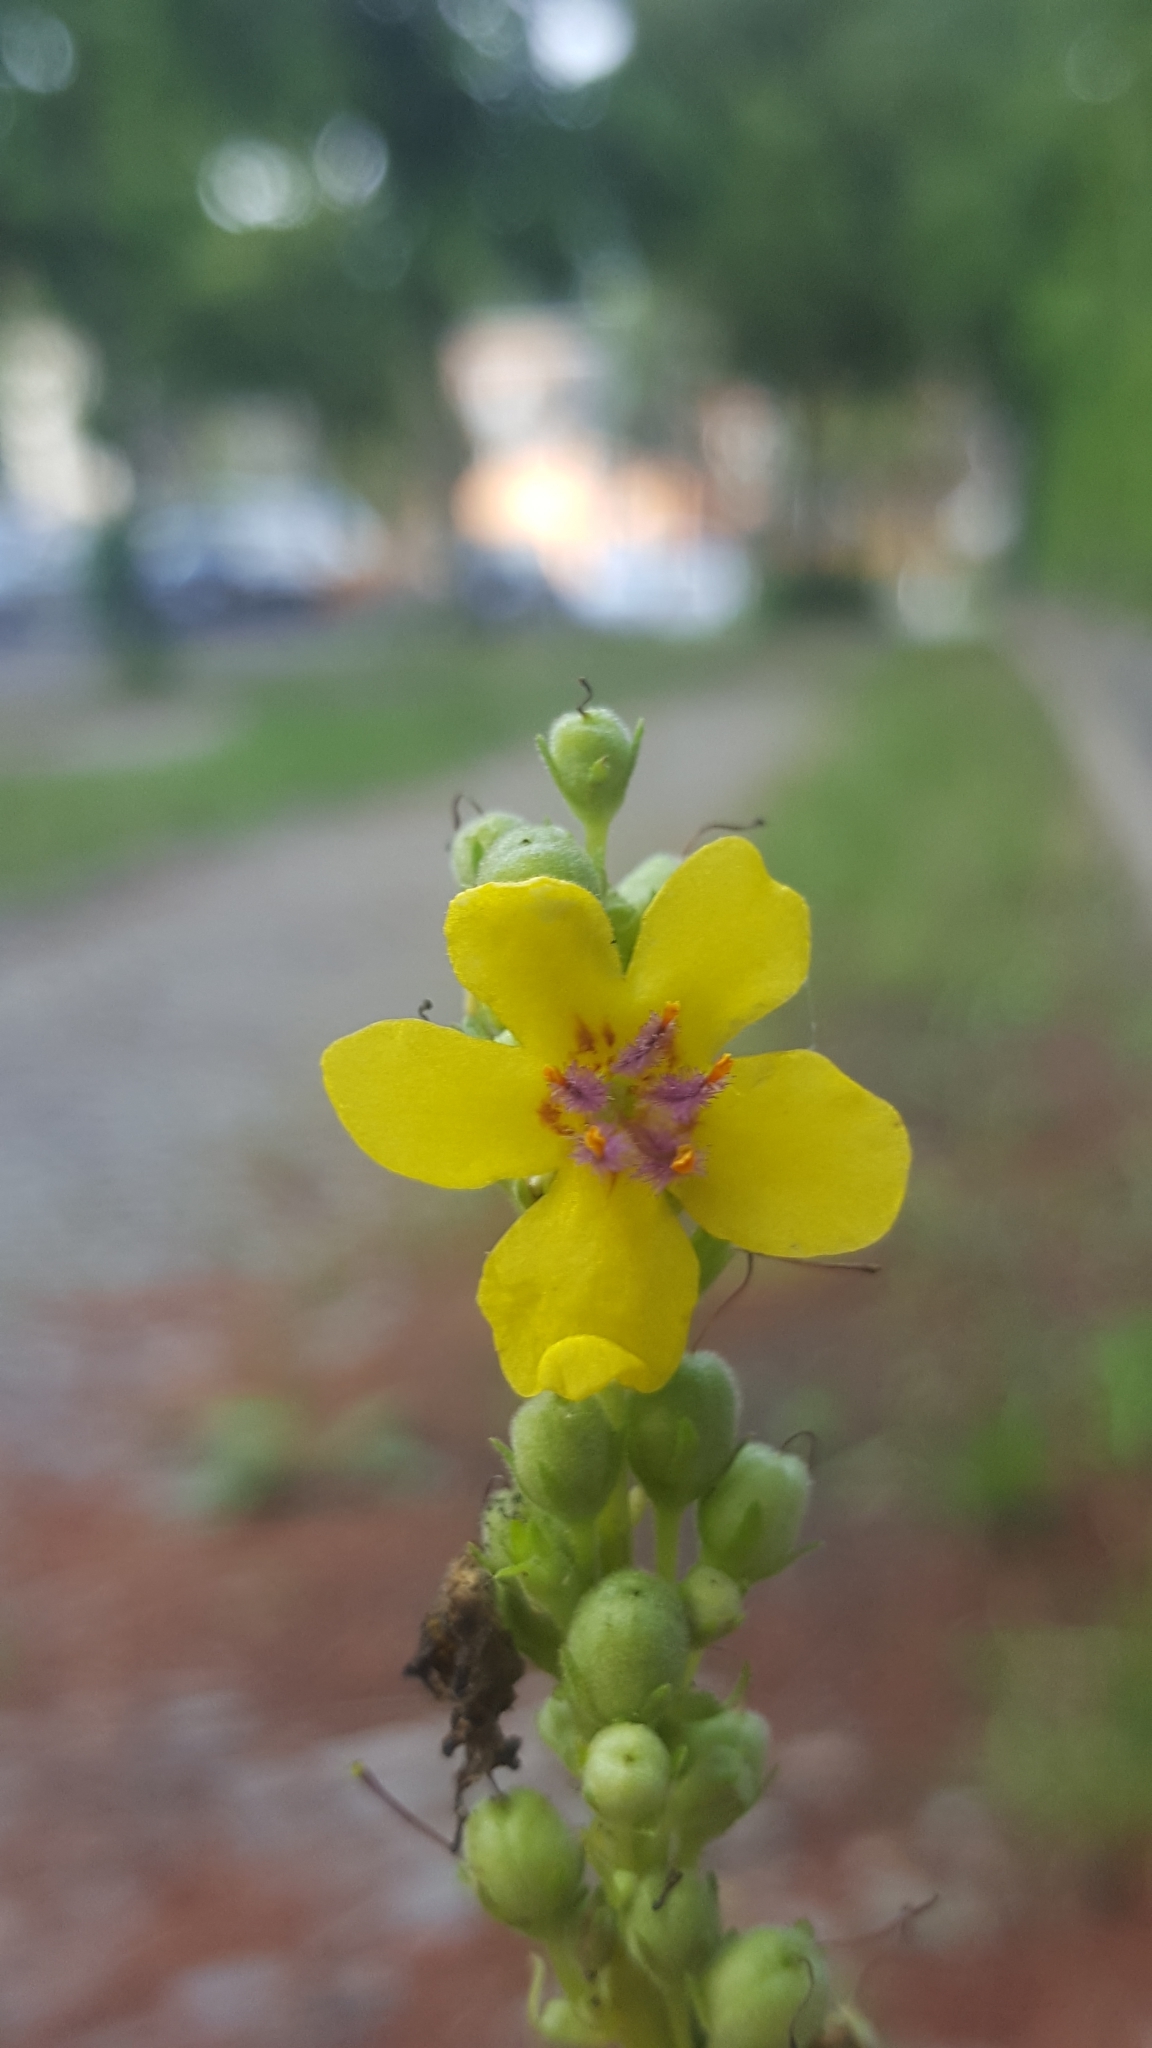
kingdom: Plantae
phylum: Tracheophyta
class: Magnoliopsida
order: Lamiales
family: Scrophulariaceae
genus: Verbascum
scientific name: Verbascum nigrum
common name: Dark mullein
